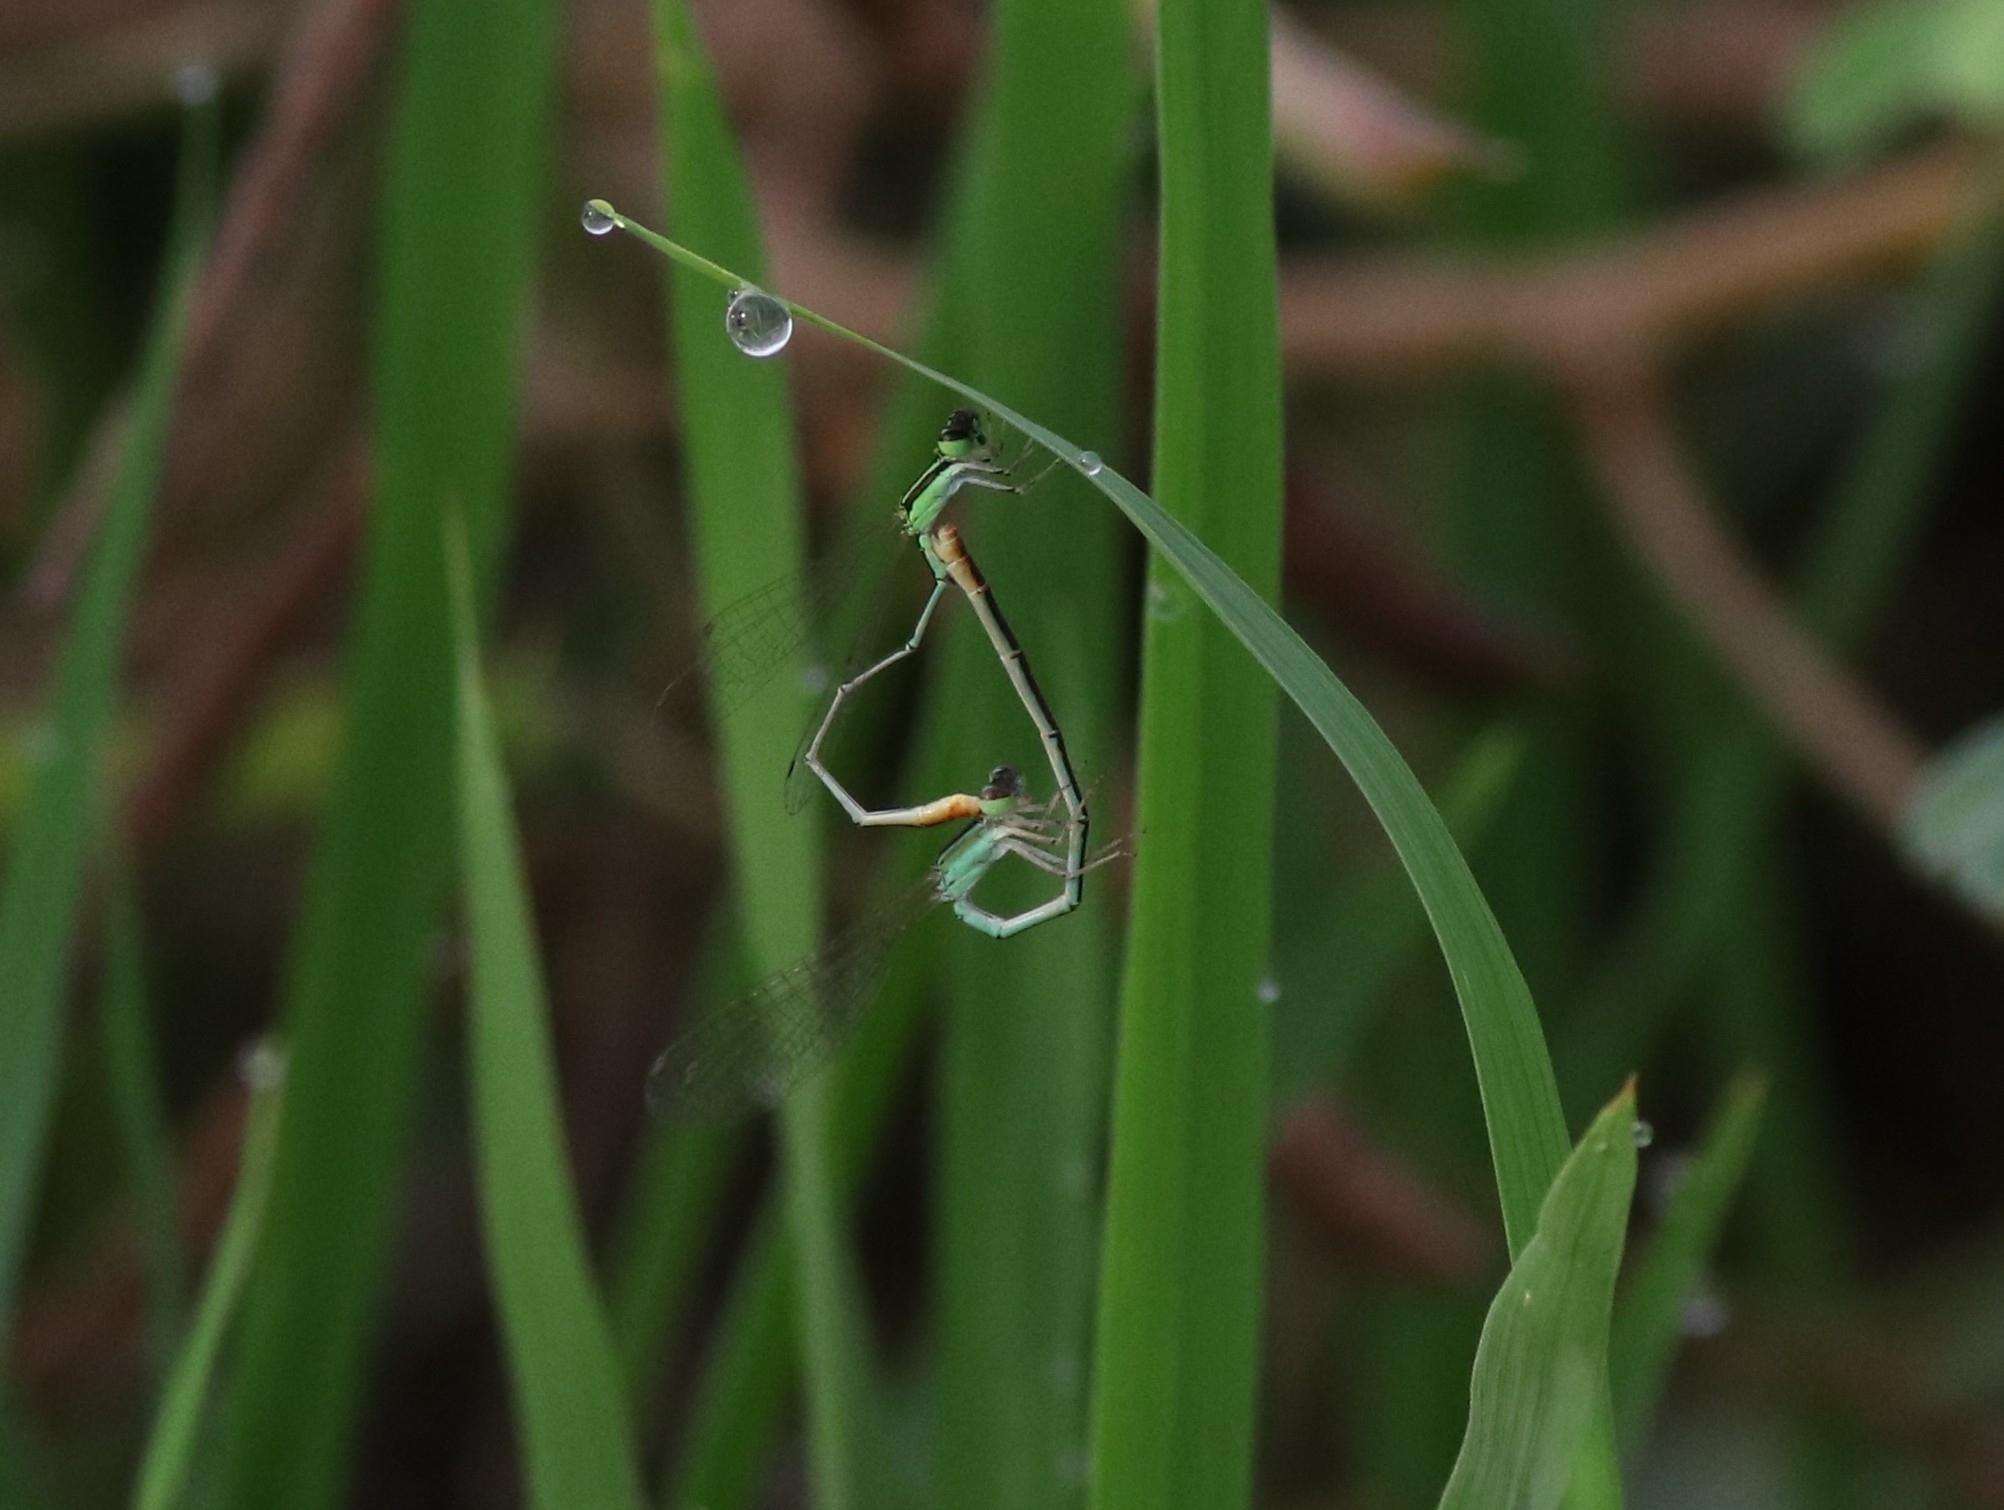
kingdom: Animalia
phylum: Arthropoda
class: Insecta
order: Odonata
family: Coenagrionidae
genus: Agriocnemis
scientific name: Agriocnemis pygmaea
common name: Pygmy wisp
